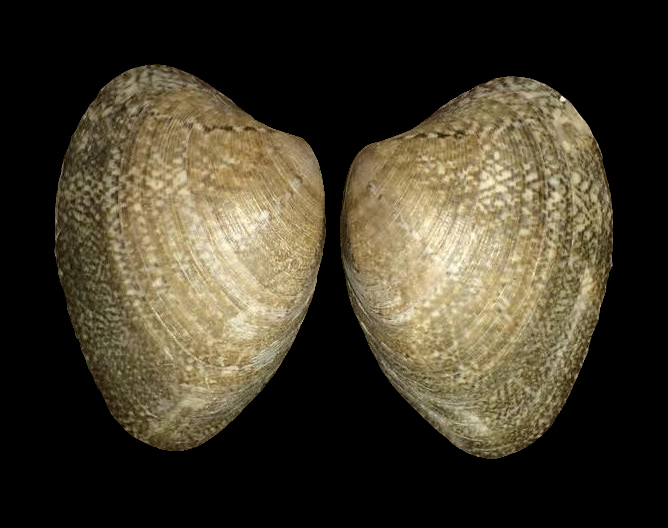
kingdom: Animalia
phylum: Mollusca
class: Bivalvia
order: Venerida
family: Veneridae
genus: Polititapes
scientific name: Polititapes aureus
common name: Golden carpet shell
